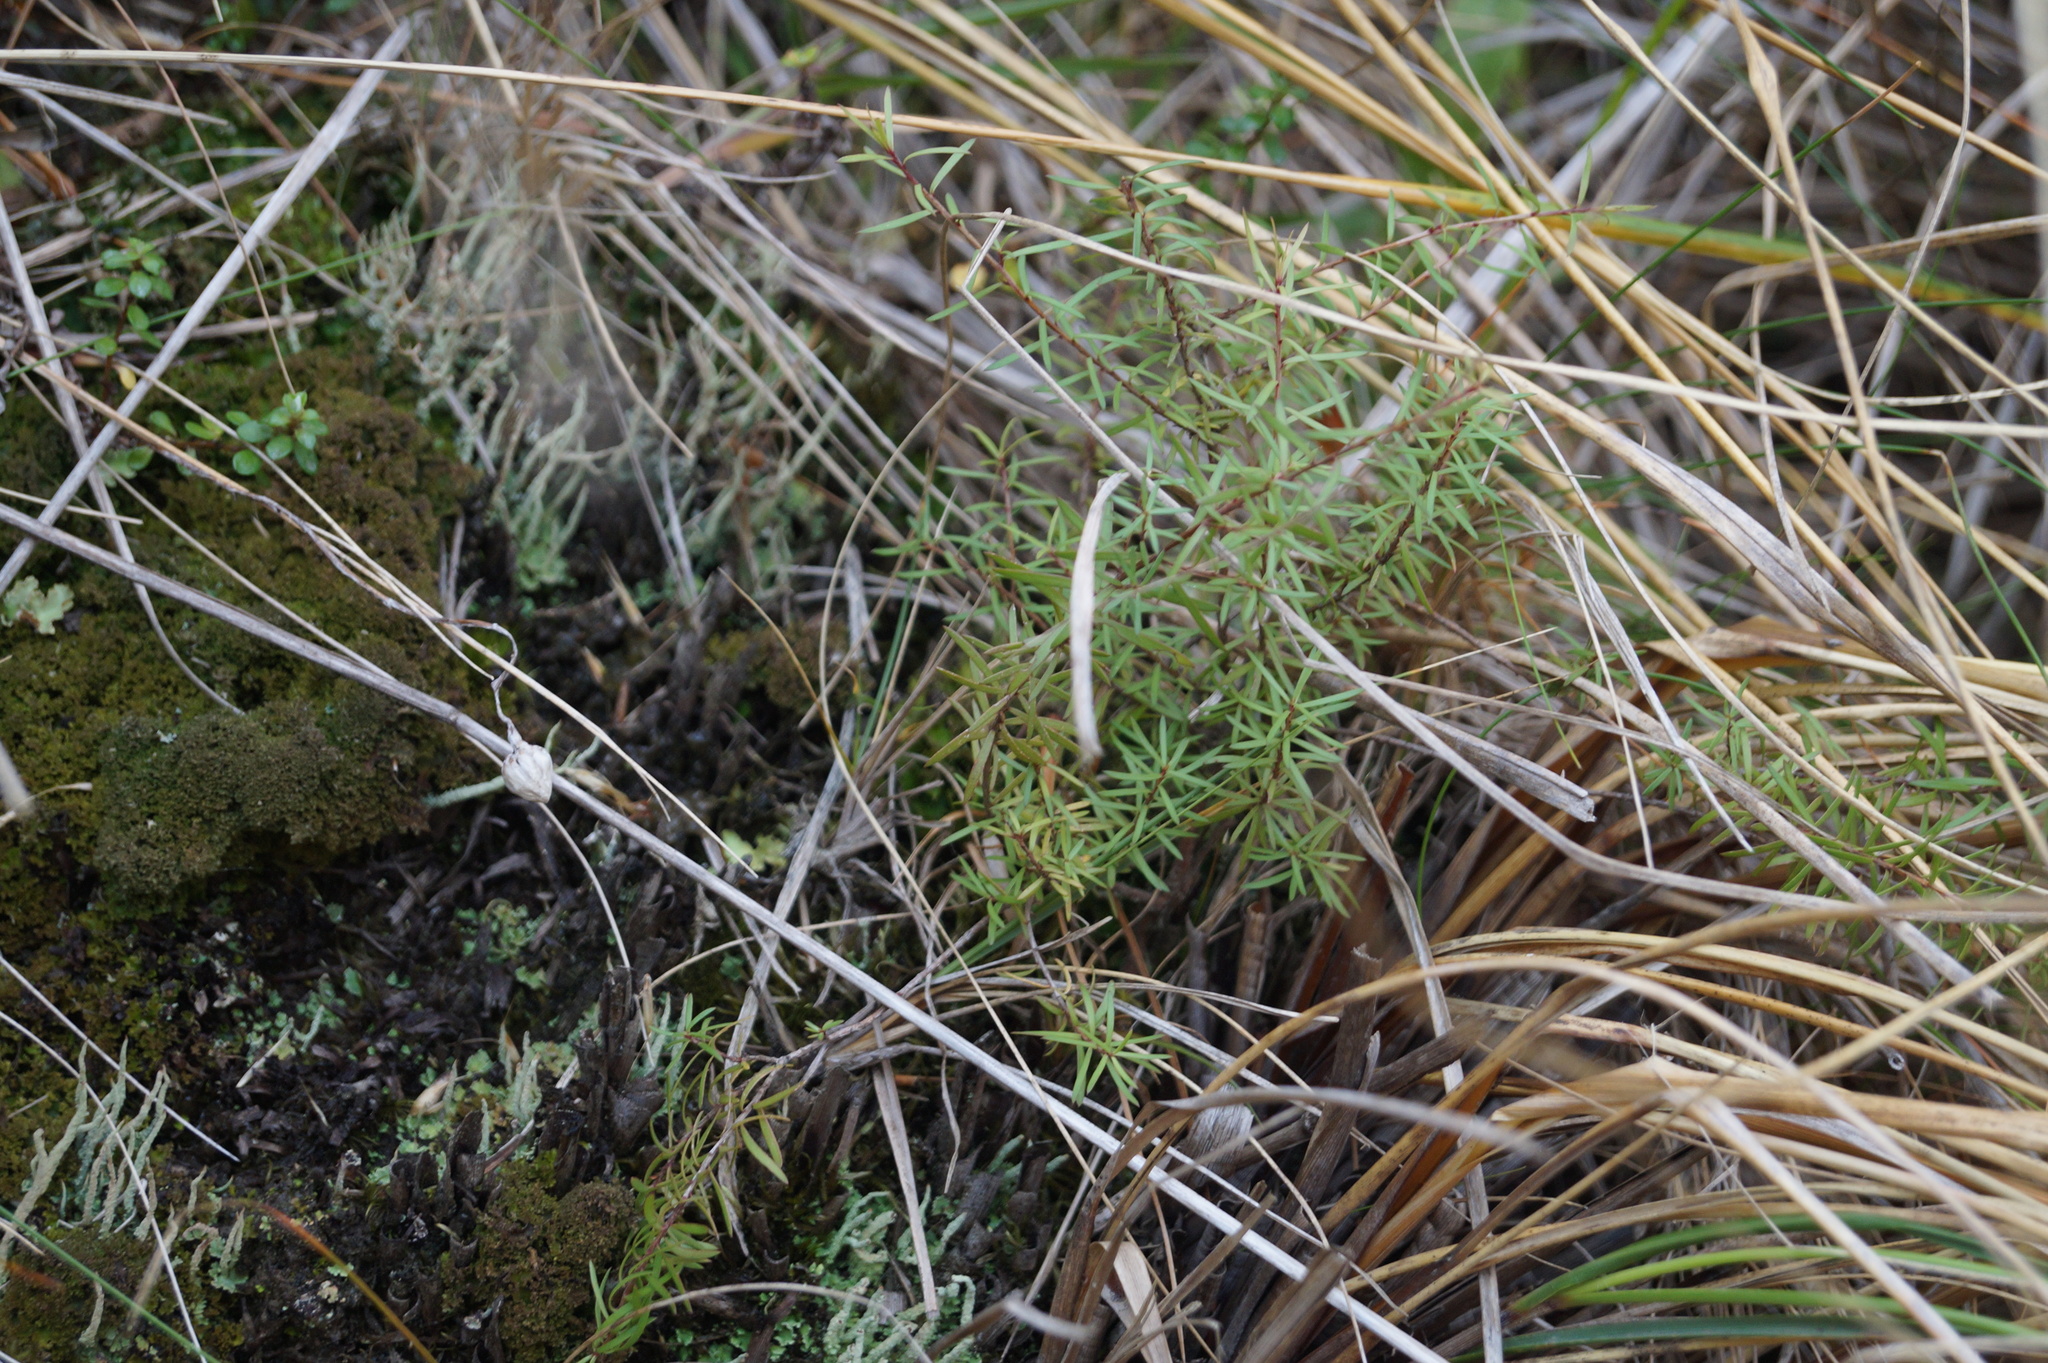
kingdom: Plantae
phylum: Tracheophyta
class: Magnoliopsida
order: Myrtales
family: Myrtaceae
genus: Kunzea
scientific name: Kunzea robusta
